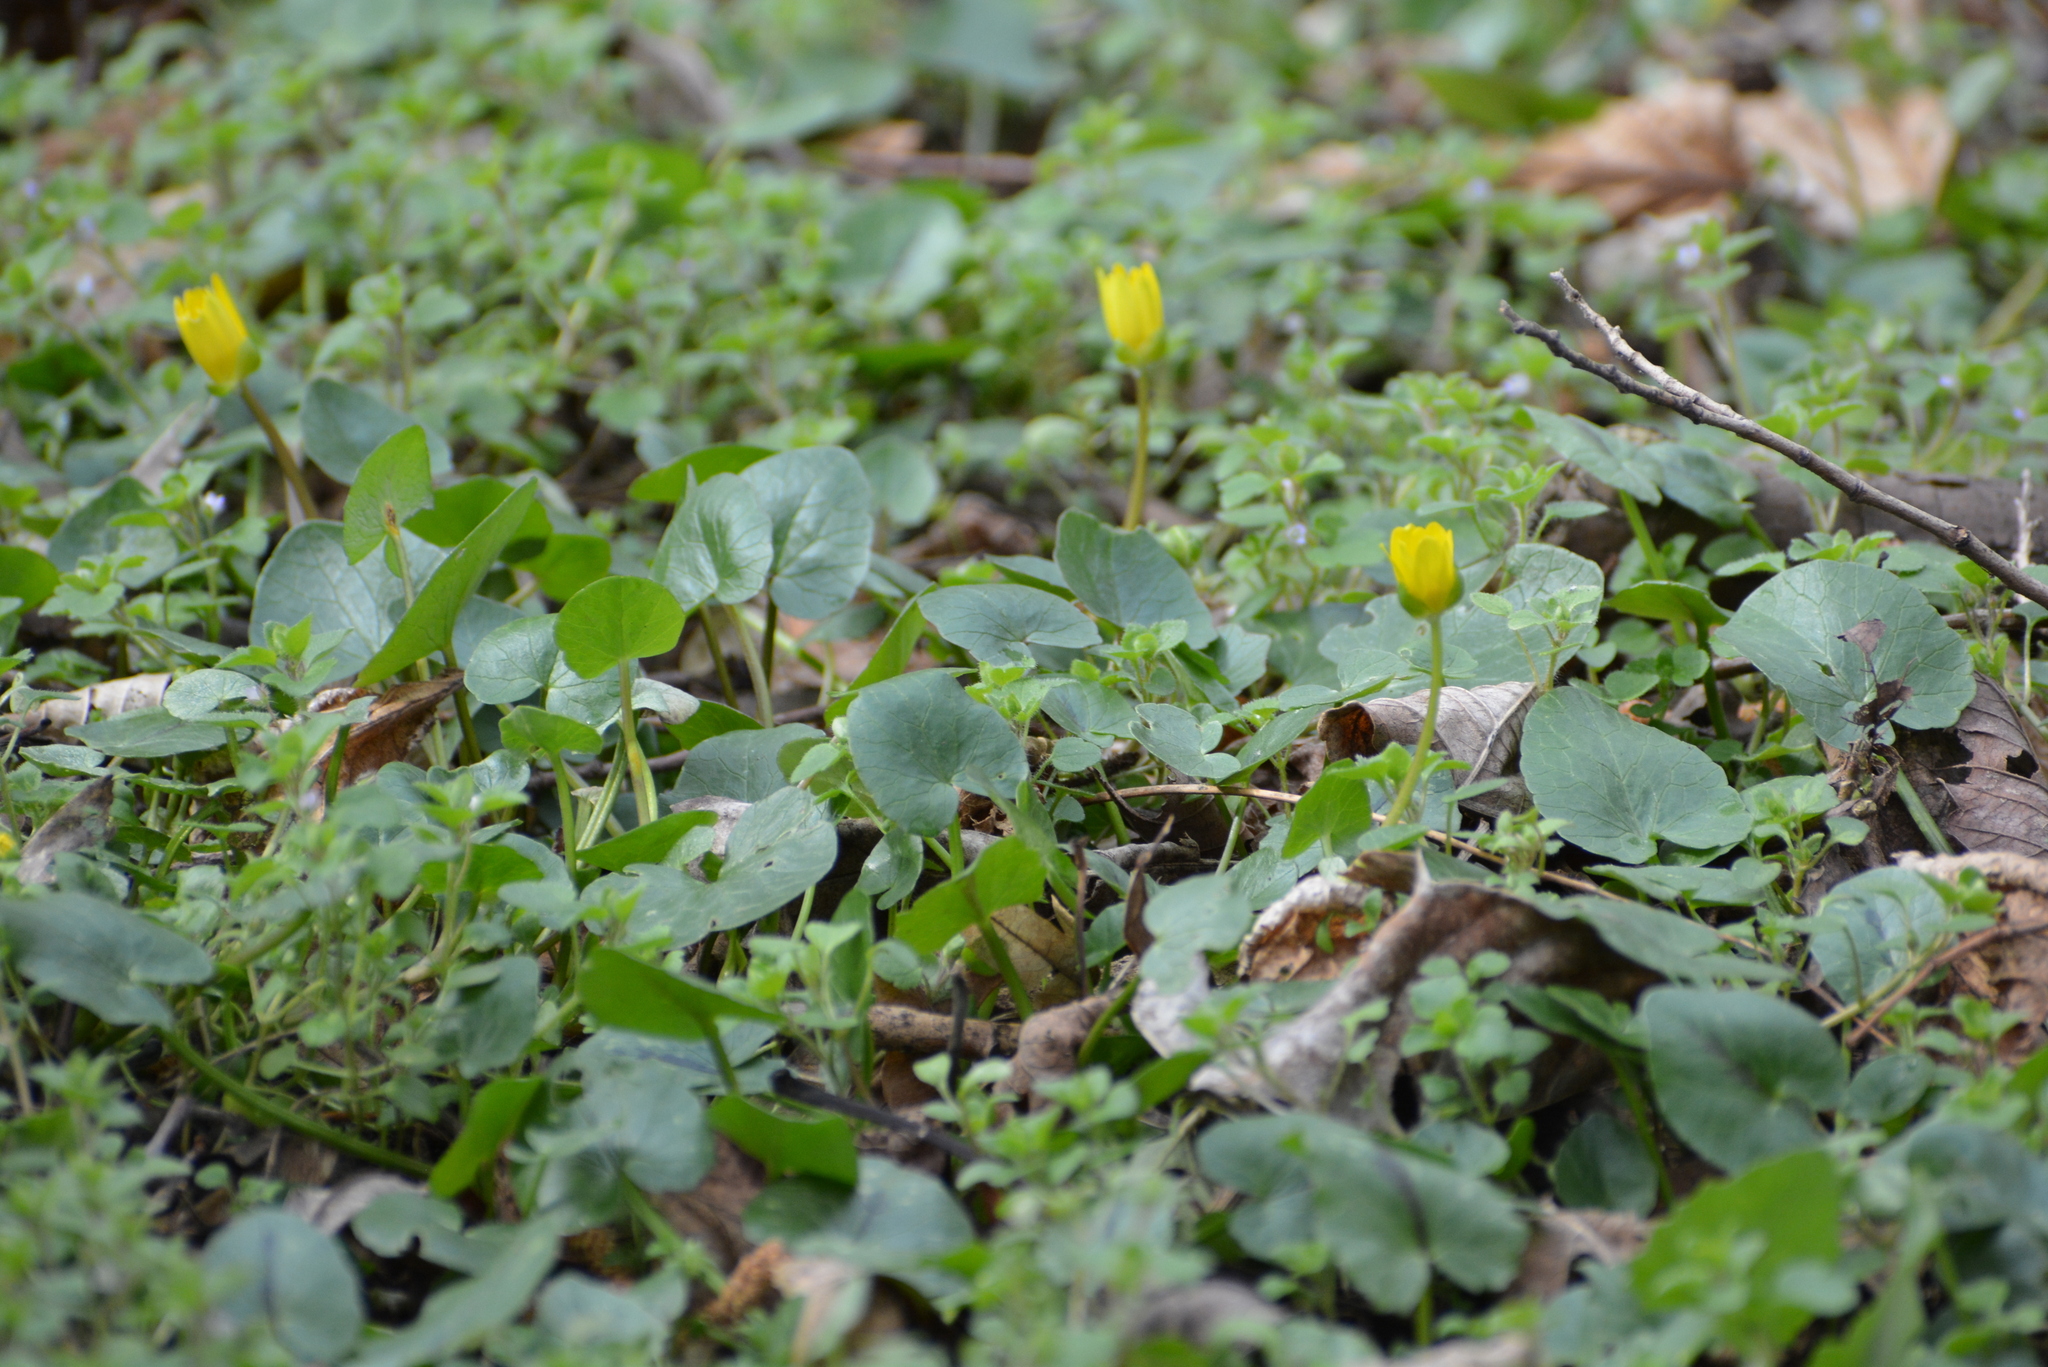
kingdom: Plantae
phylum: Tracheophyta
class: Magnoliopsida
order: Ranunculales
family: Ranunculaceae
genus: Ficaria
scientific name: Ficaria verna
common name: Lesser celandine
